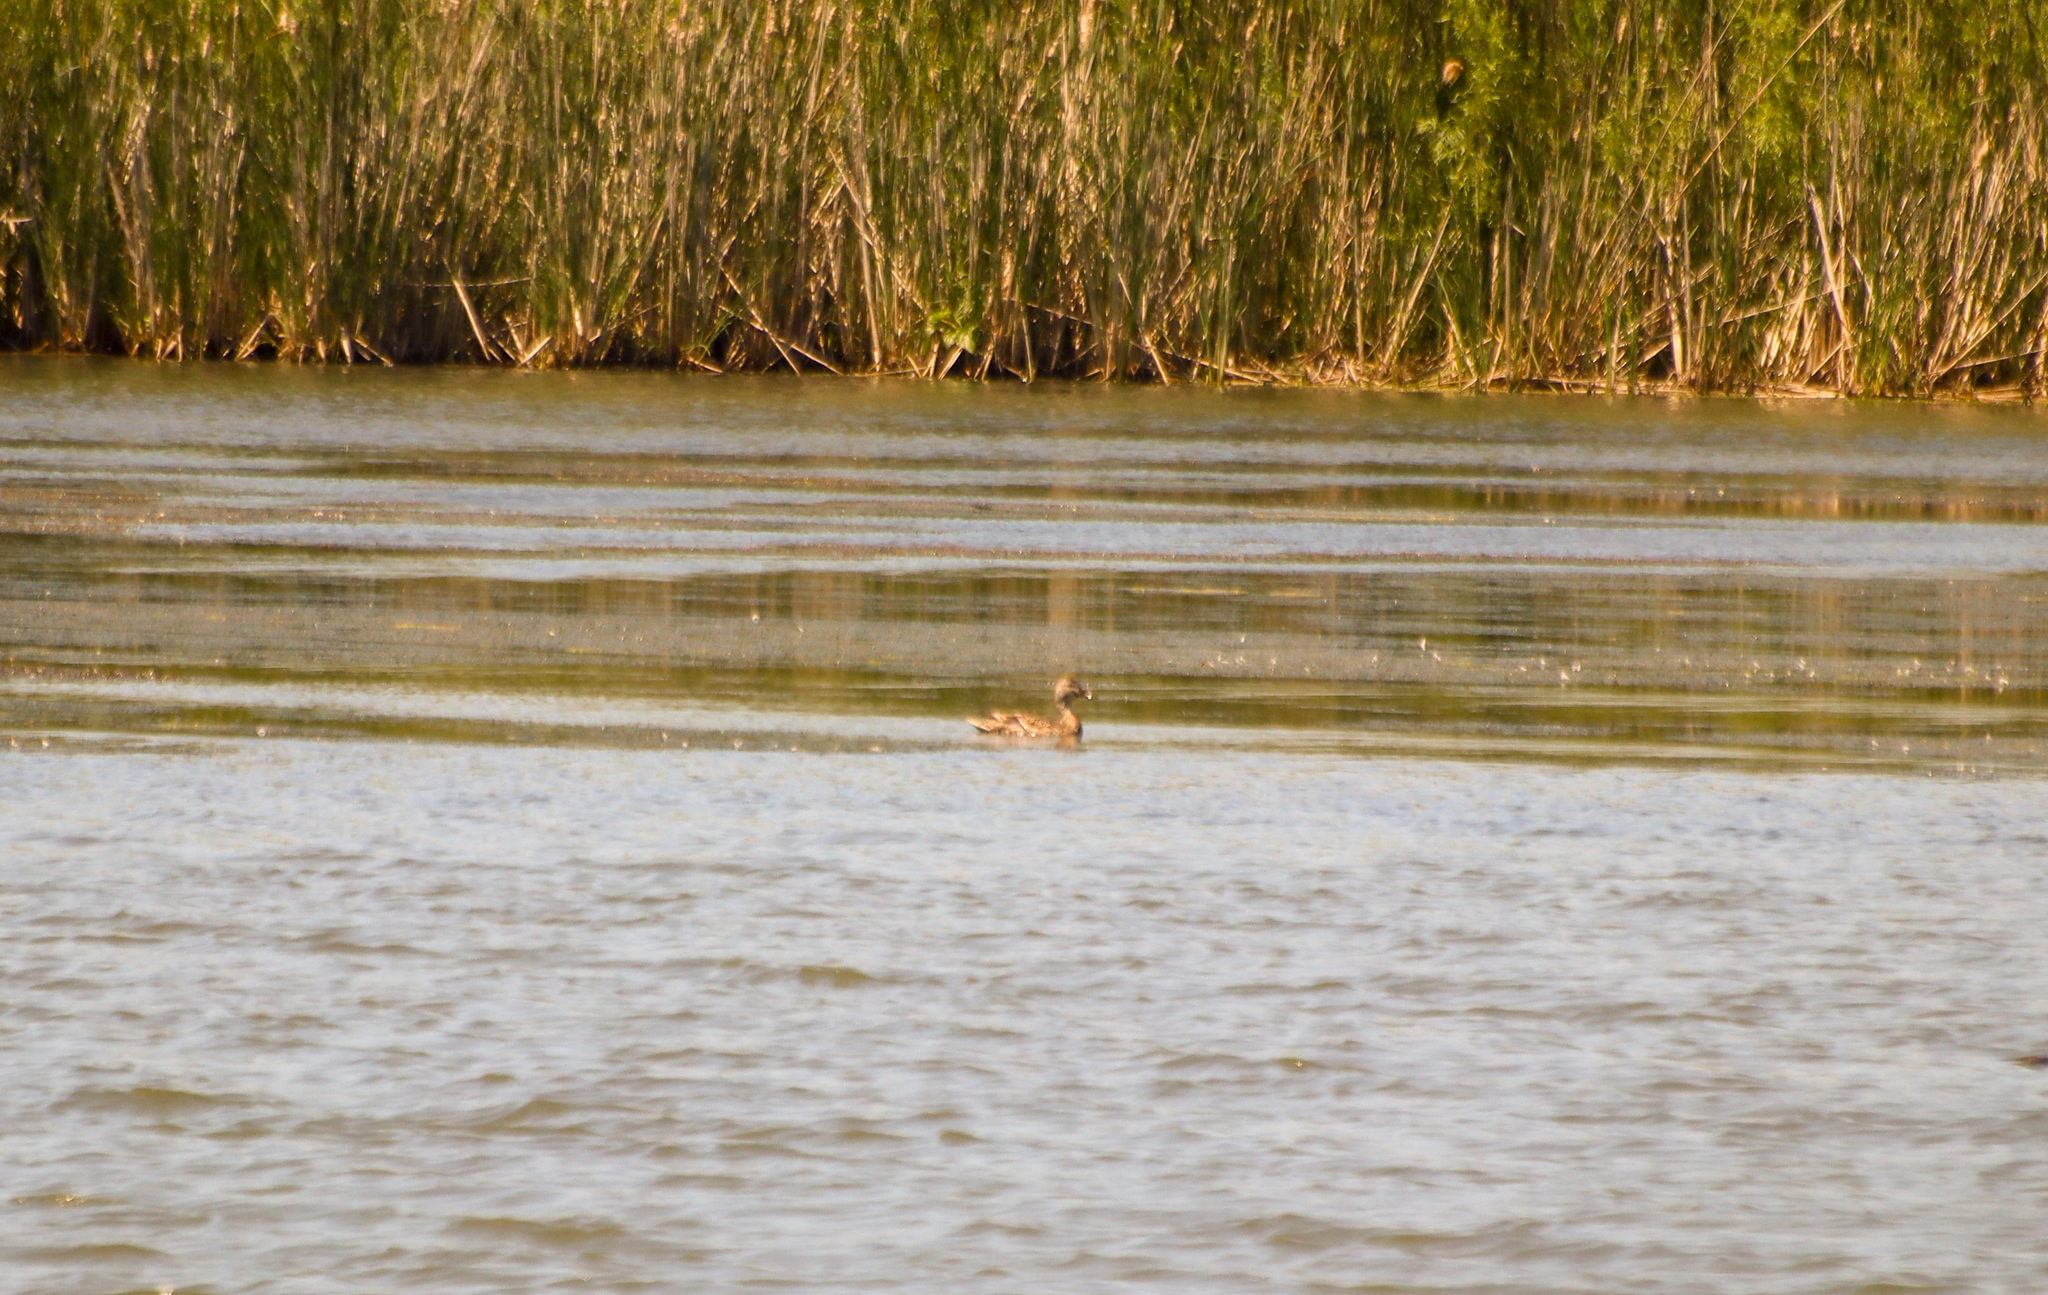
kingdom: Animalia
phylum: Chordata
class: Aves
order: Anseriformes
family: Anatidae
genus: Anas
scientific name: Anas platyrhynchos
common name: Mallard
